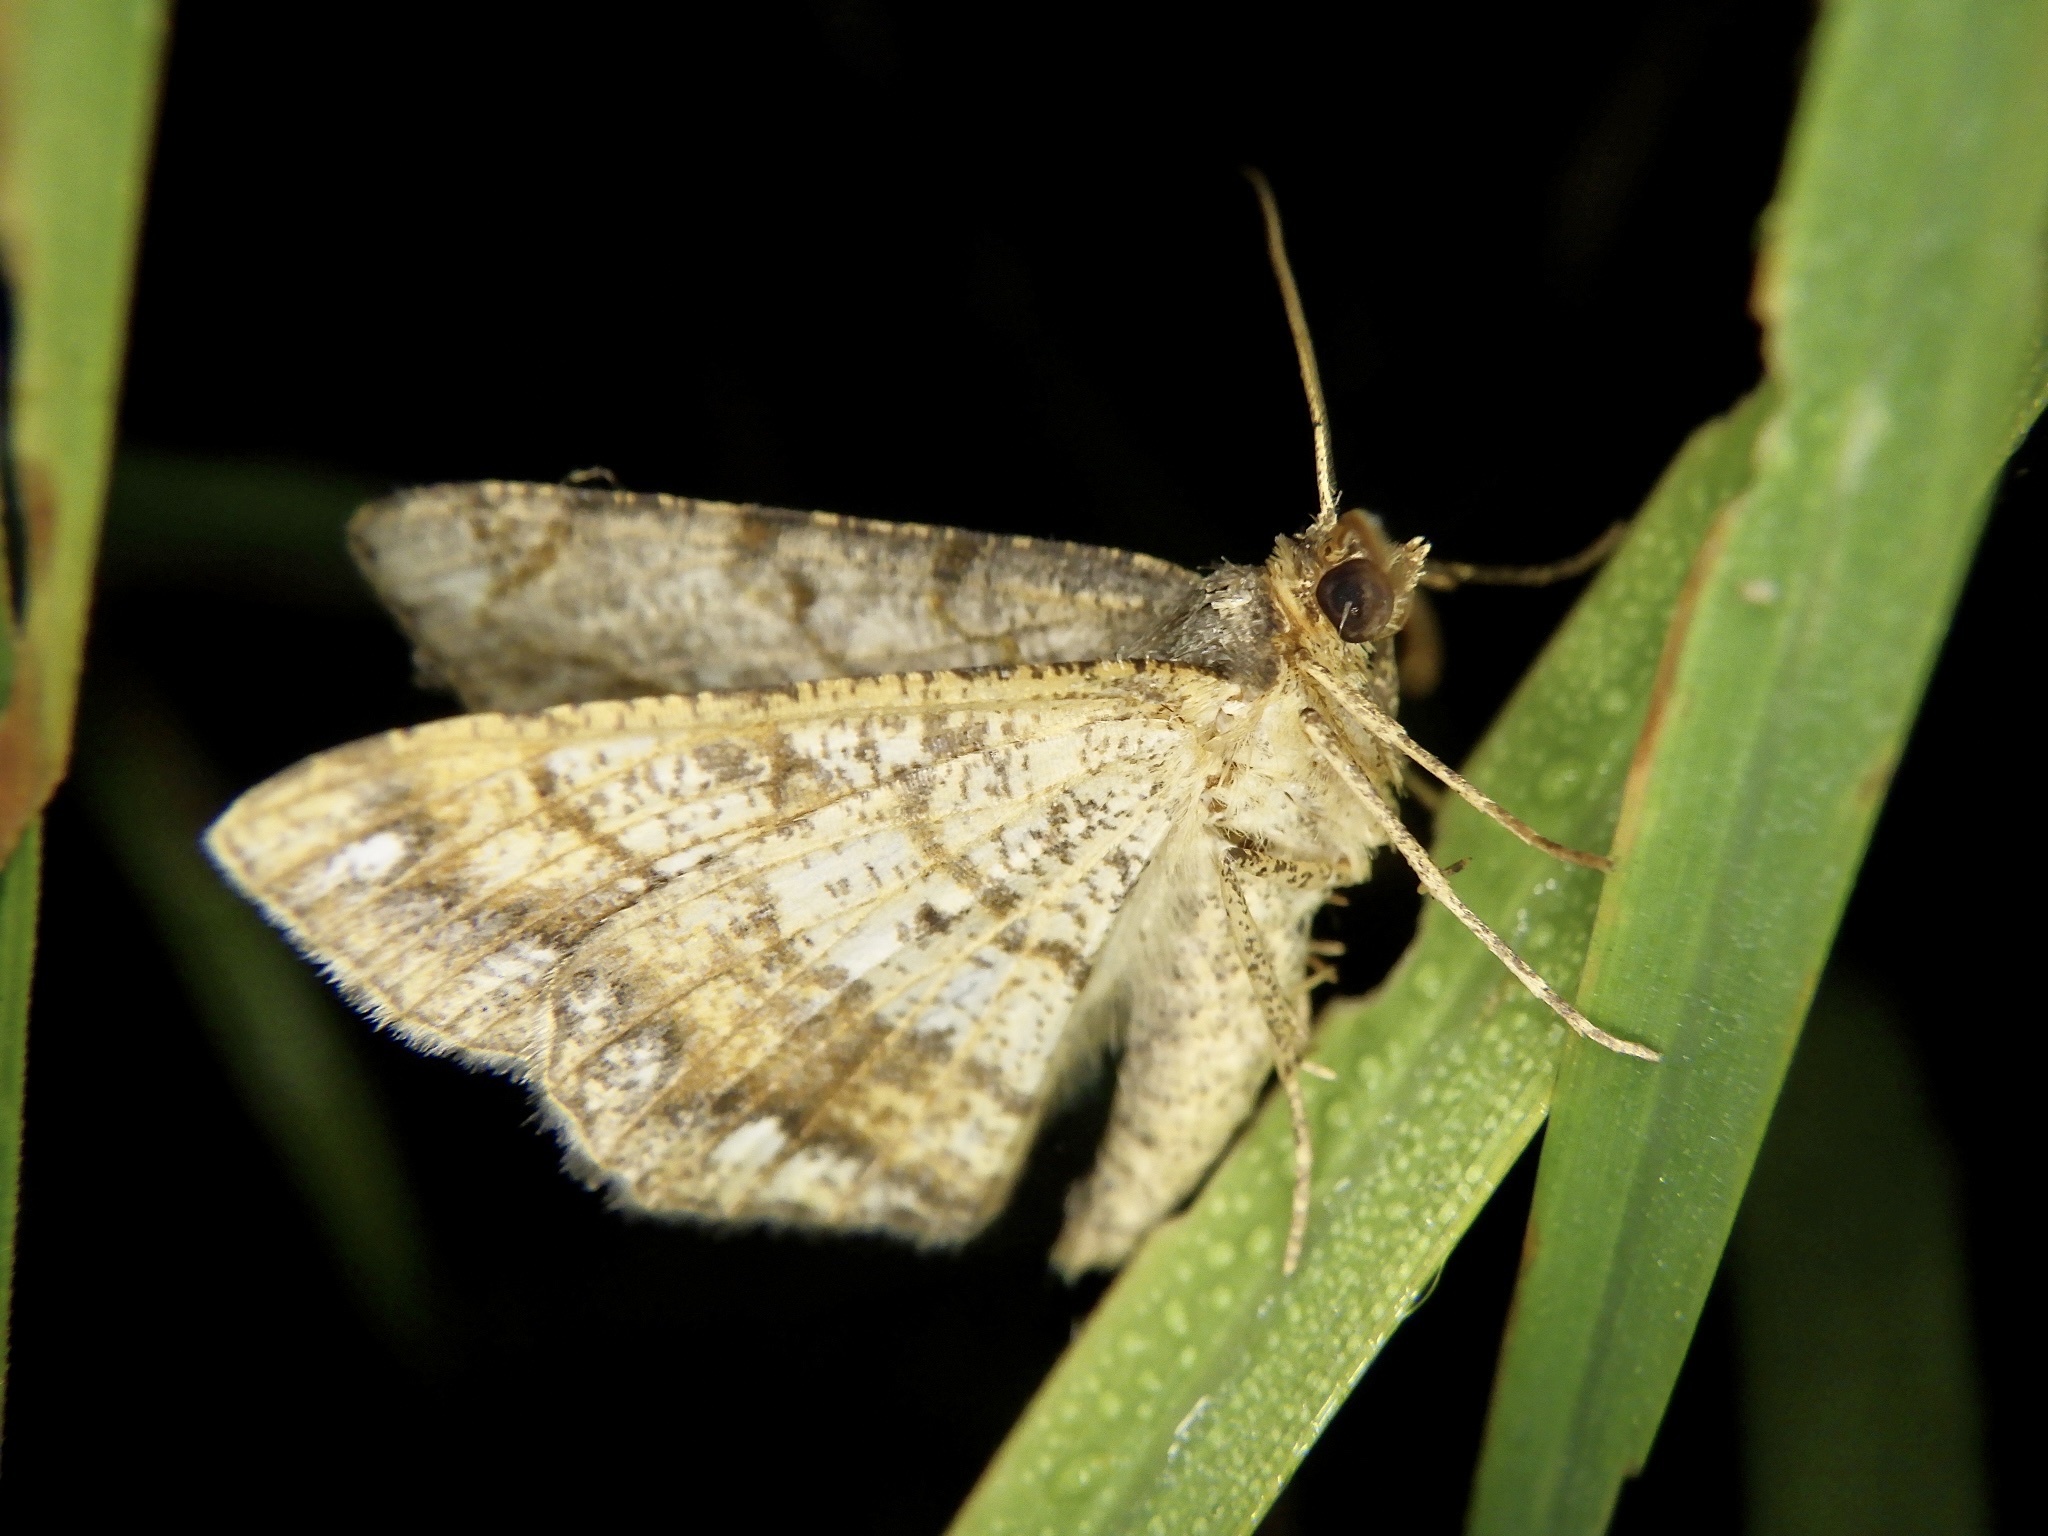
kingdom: Animalia
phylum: Arthropoda
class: Insecta
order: Lepidoptera
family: Geometridae
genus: Chiasmia
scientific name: Chiasmia defixaria
